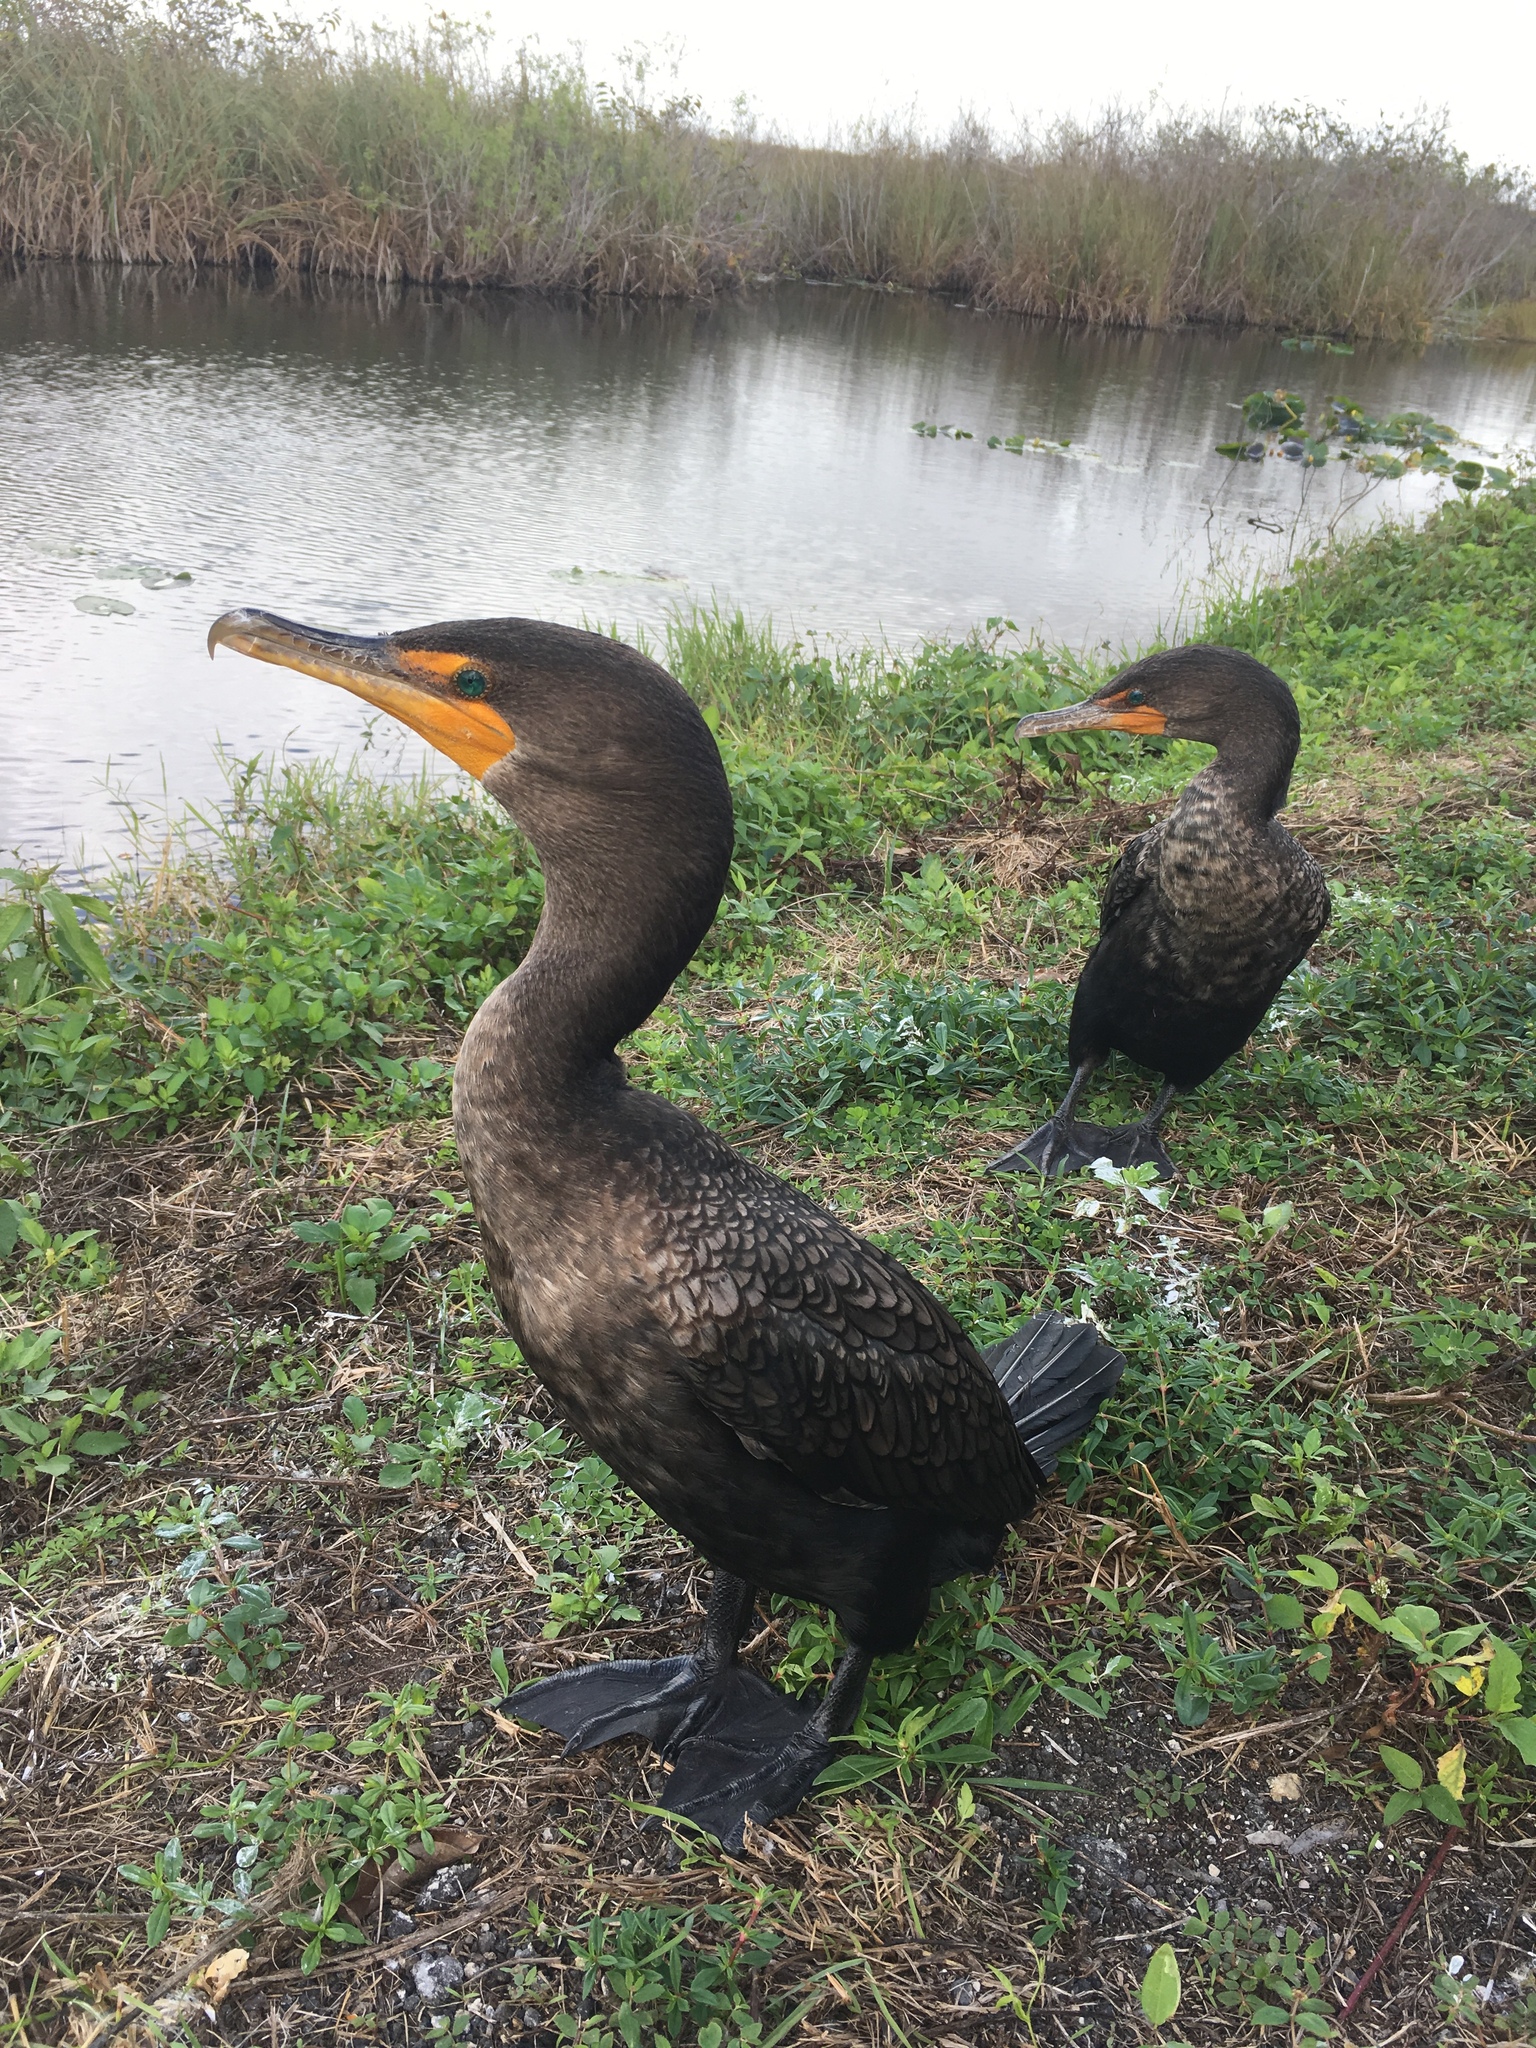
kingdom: Animalia
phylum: Chordata
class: Aves
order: Suliformes
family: Phalacrocoracidae
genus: Phalacrocorax
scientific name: Phalacrocorax auritus
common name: Double-crested cormorant
